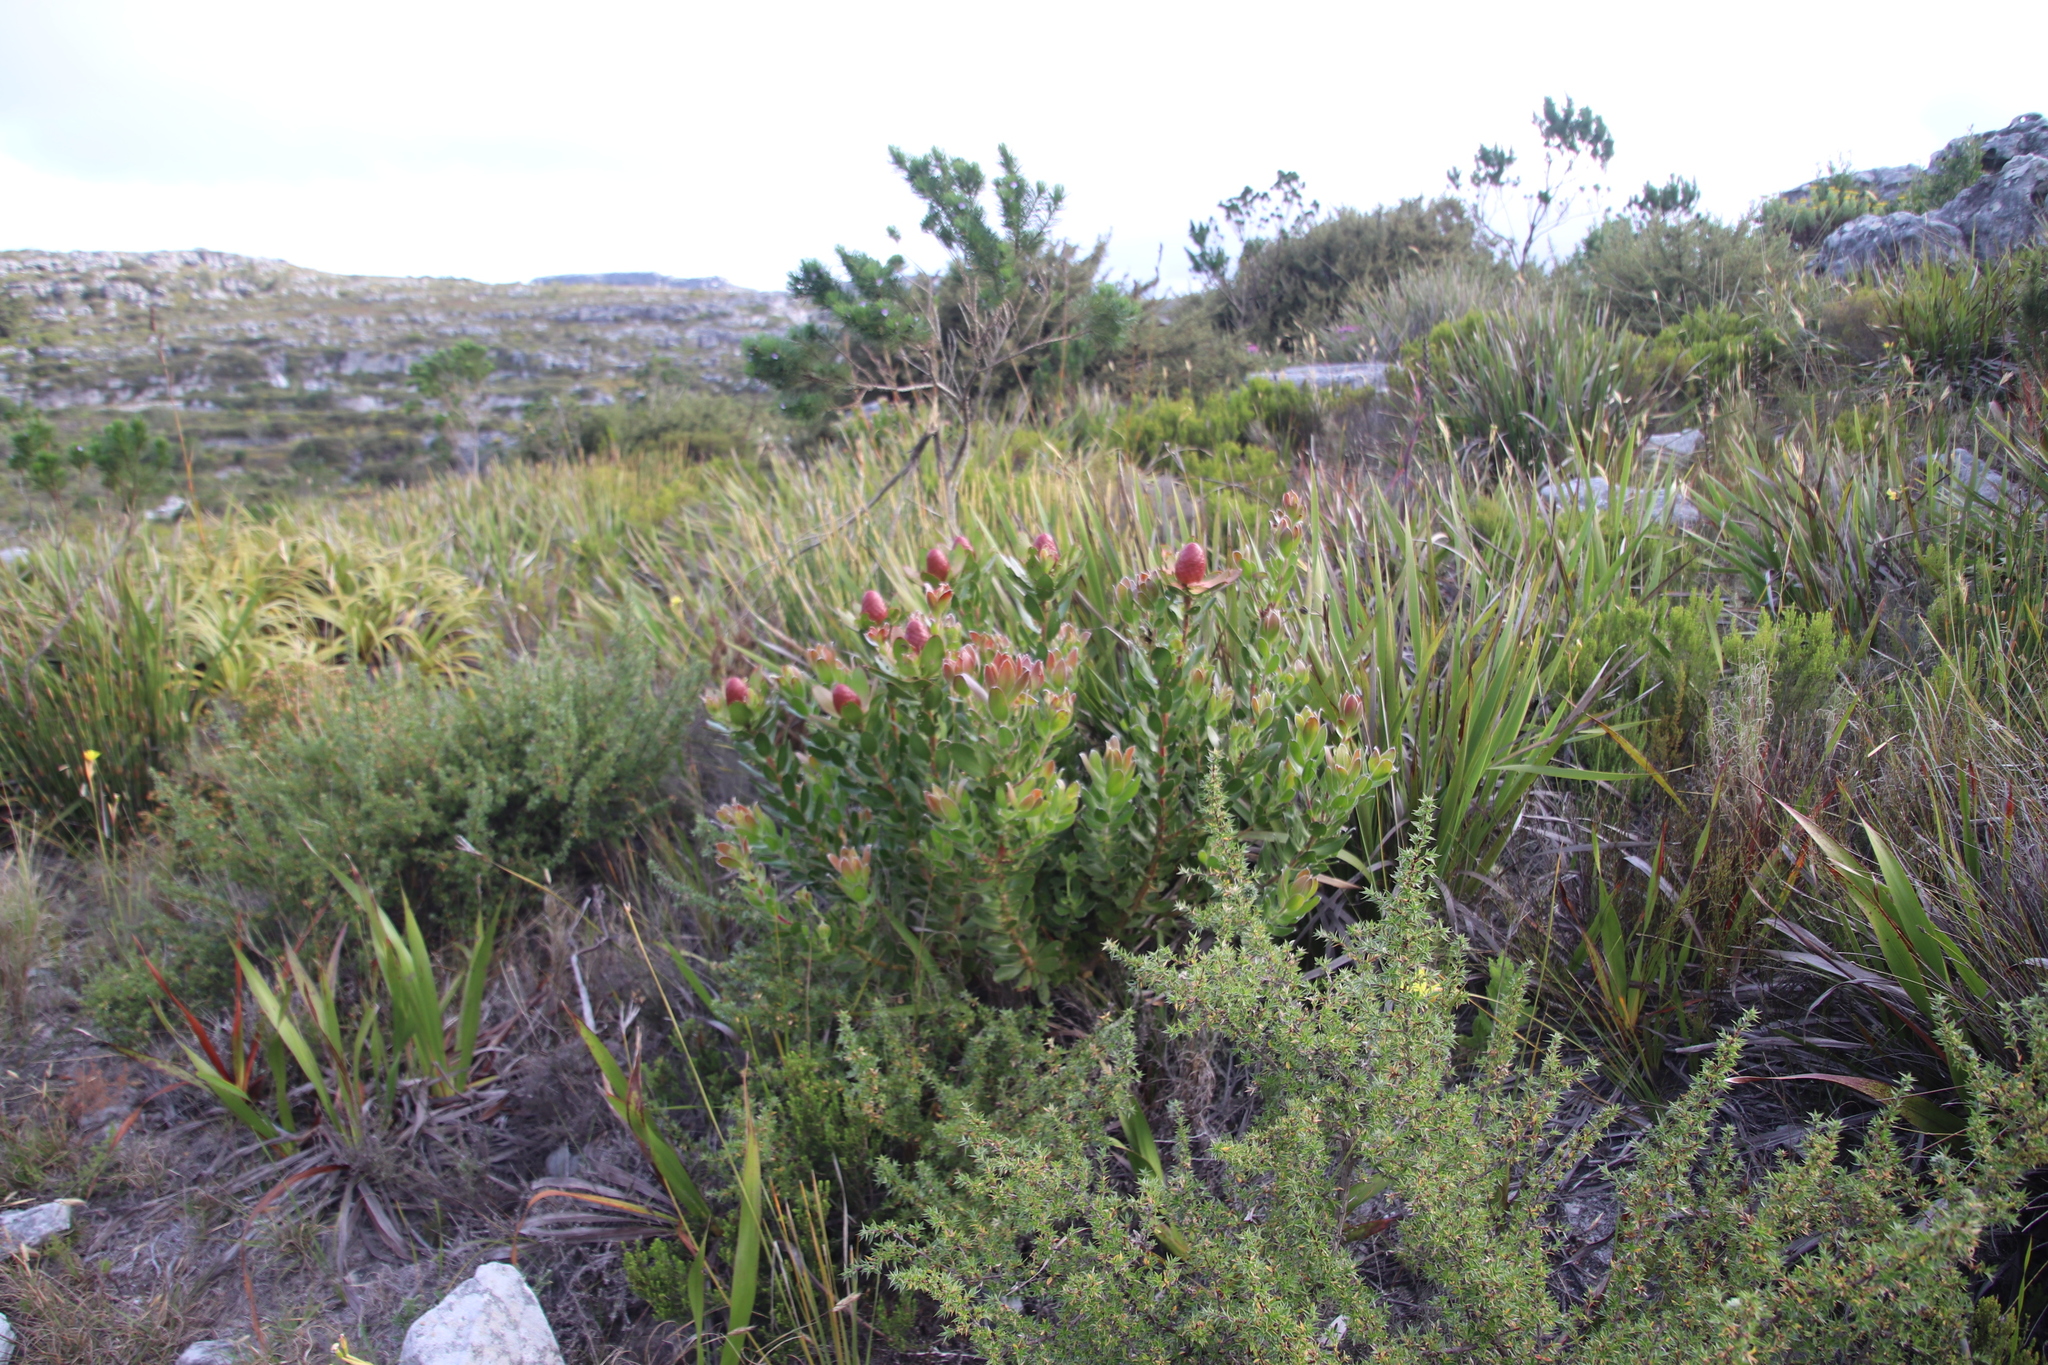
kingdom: Plantae
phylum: Tracheophyta
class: Magnoliopsida
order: Proteales
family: Proteaceae
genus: Leucadendron
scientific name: Leucadendron strobilinum
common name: Mountain rose
